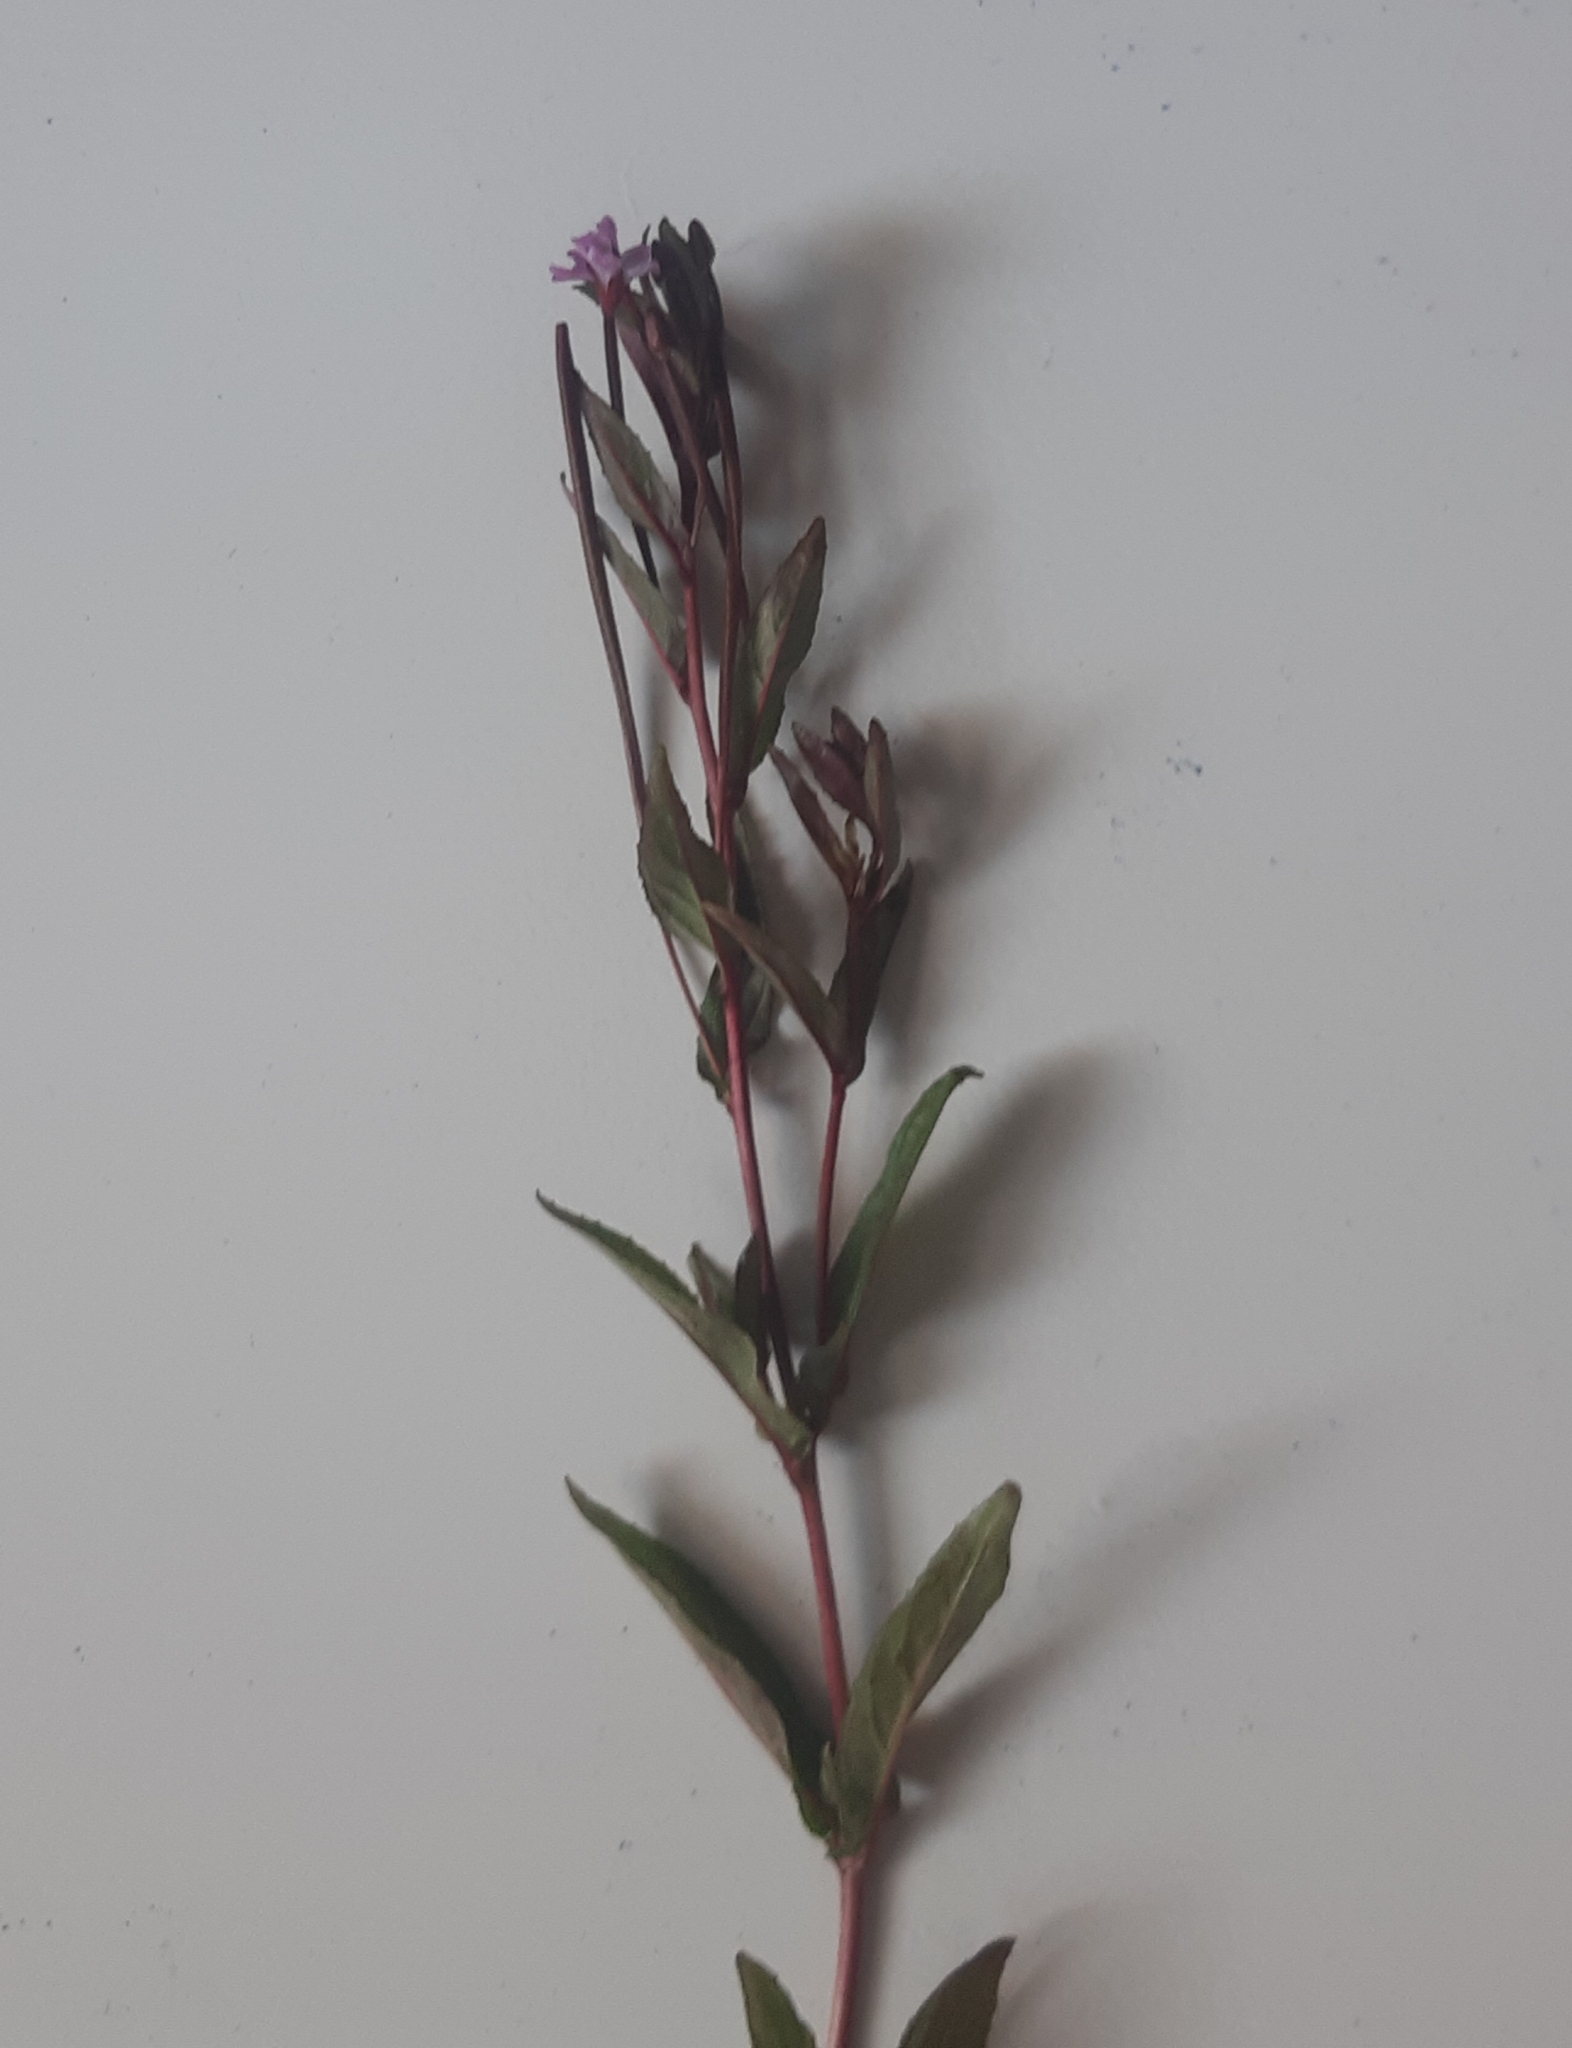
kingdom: Plantae
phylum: Tracheophyta
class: Magnoliopsida
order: Myrtales
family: Onagraceae
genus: Epilobium
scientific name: Epilobium ciliatum
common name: American willowherb
